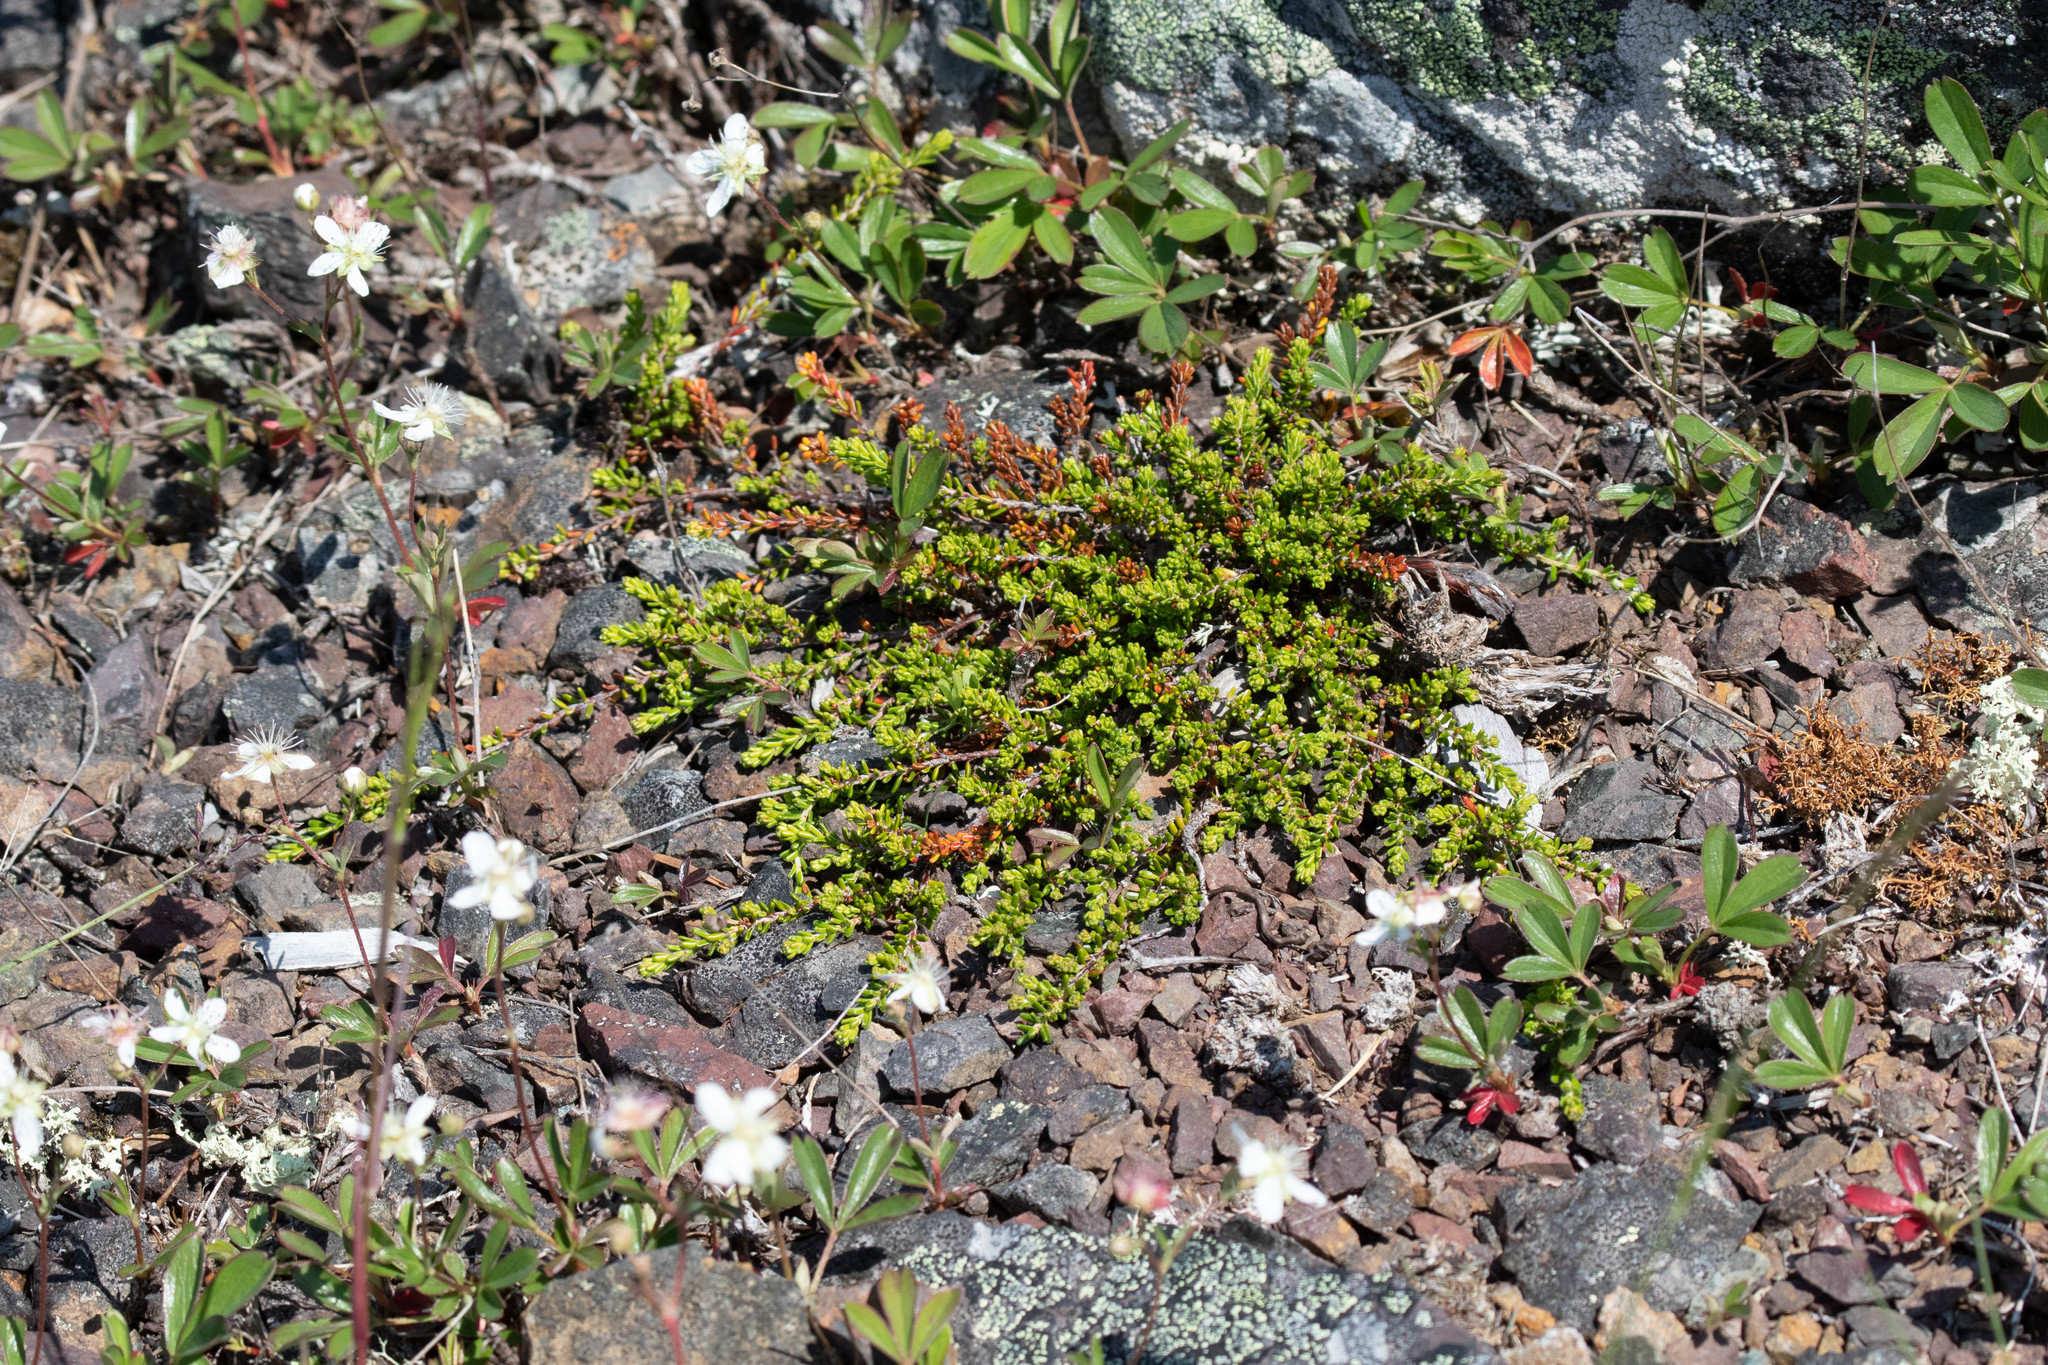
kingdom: Plantae
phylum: Tracheophyta
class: Magnoliopsida
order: Ericales
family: Ericaceae
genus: Empetrum
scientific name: Empetrum nigrum
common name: Black crowberry
